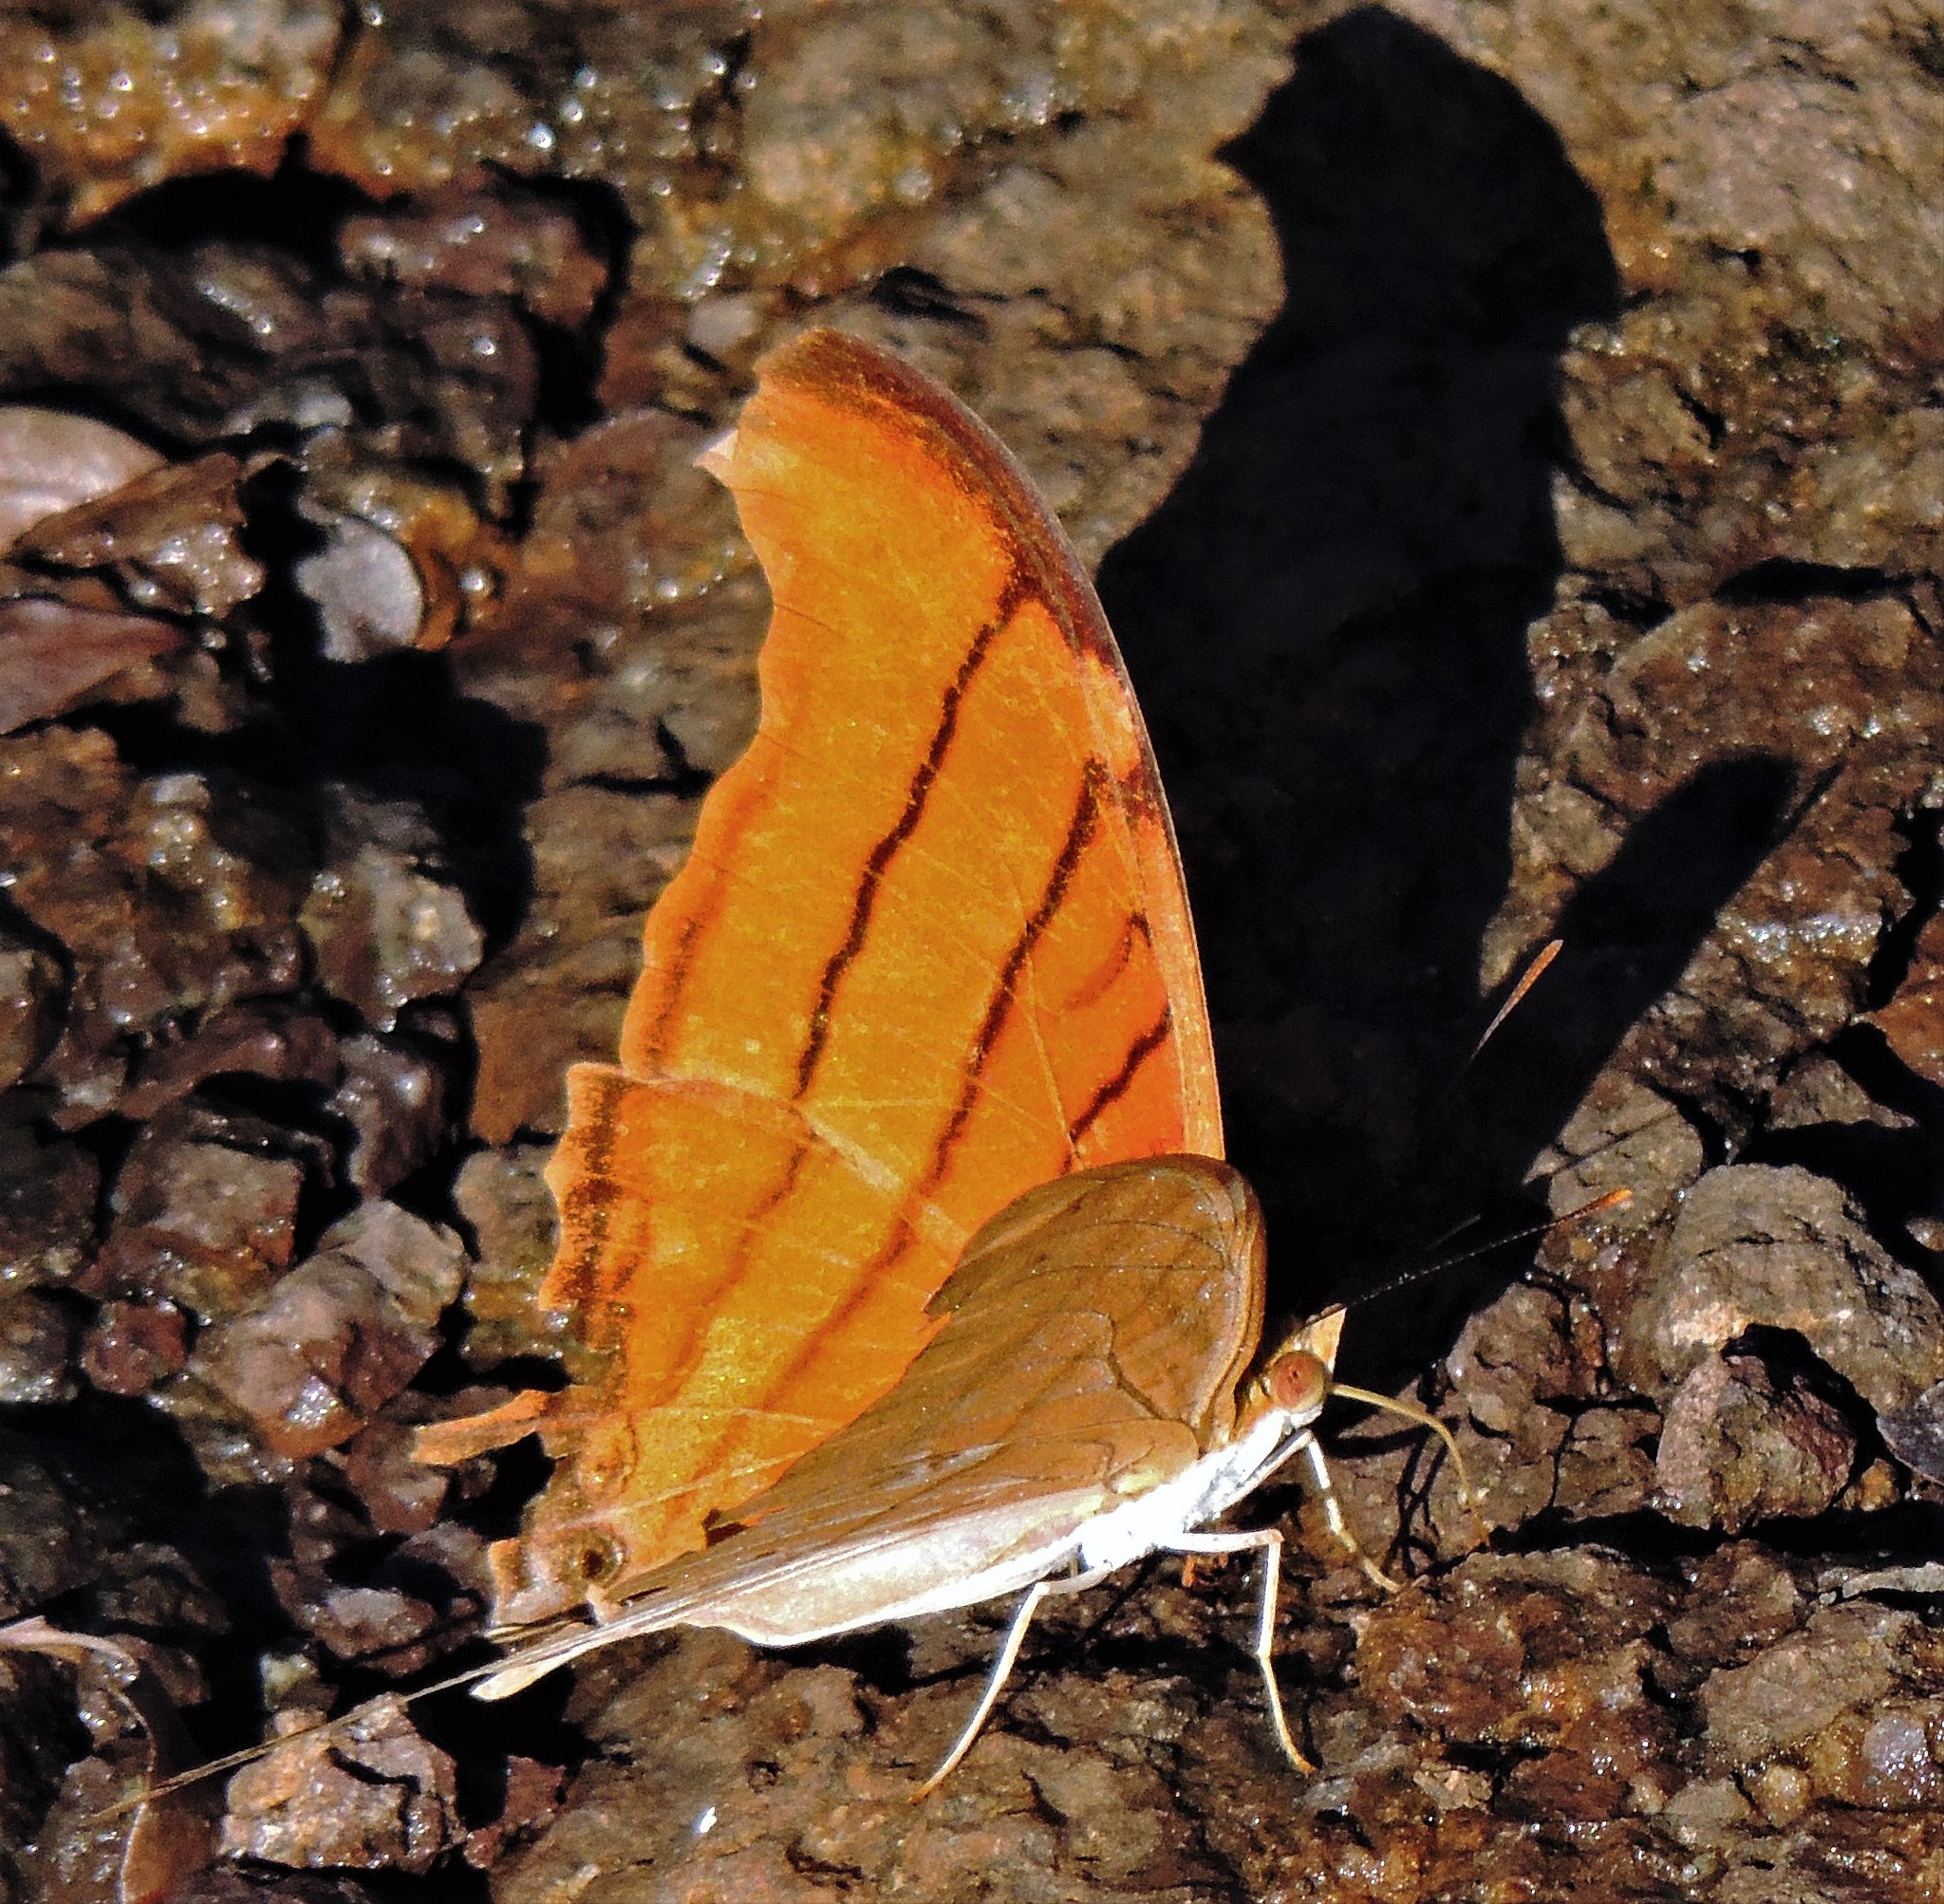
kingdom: Animalia
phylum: Arthropoda
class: Insecta
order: Lepidoptera
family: Nymphalidae
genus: Marpesia
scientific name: Marpesia petreus
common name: Red dagger wing
